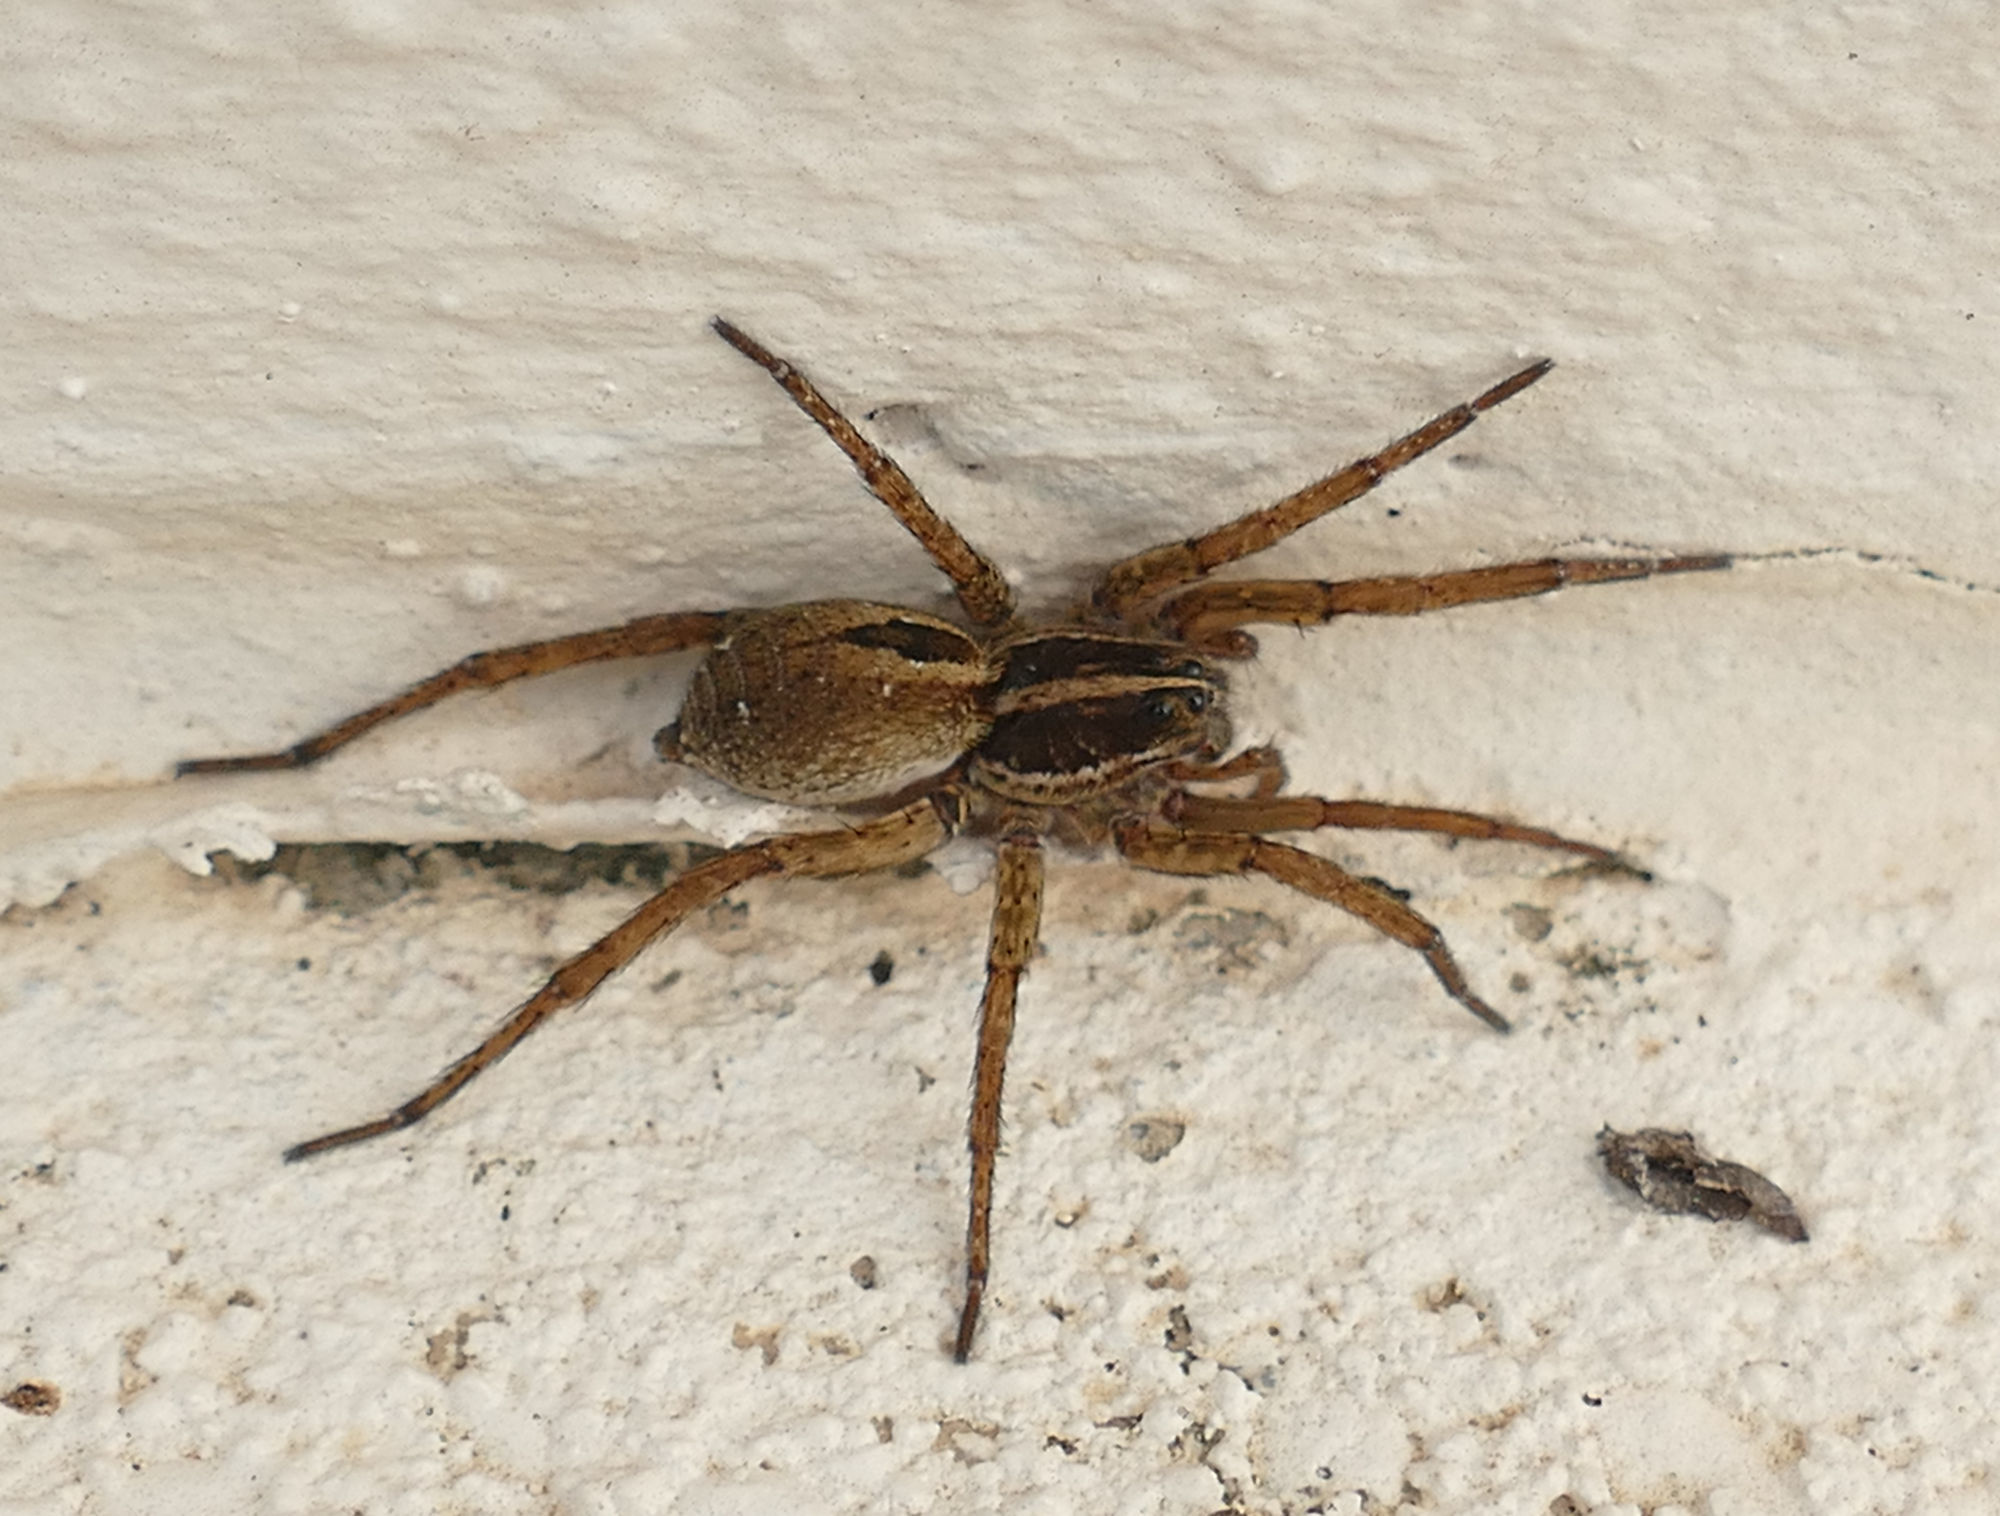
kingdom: Animalia
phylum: Arthropoda
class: Arachnida
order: Araneae
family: Lycosidae
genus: Tigrosa
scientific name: Tigrosa annexa
